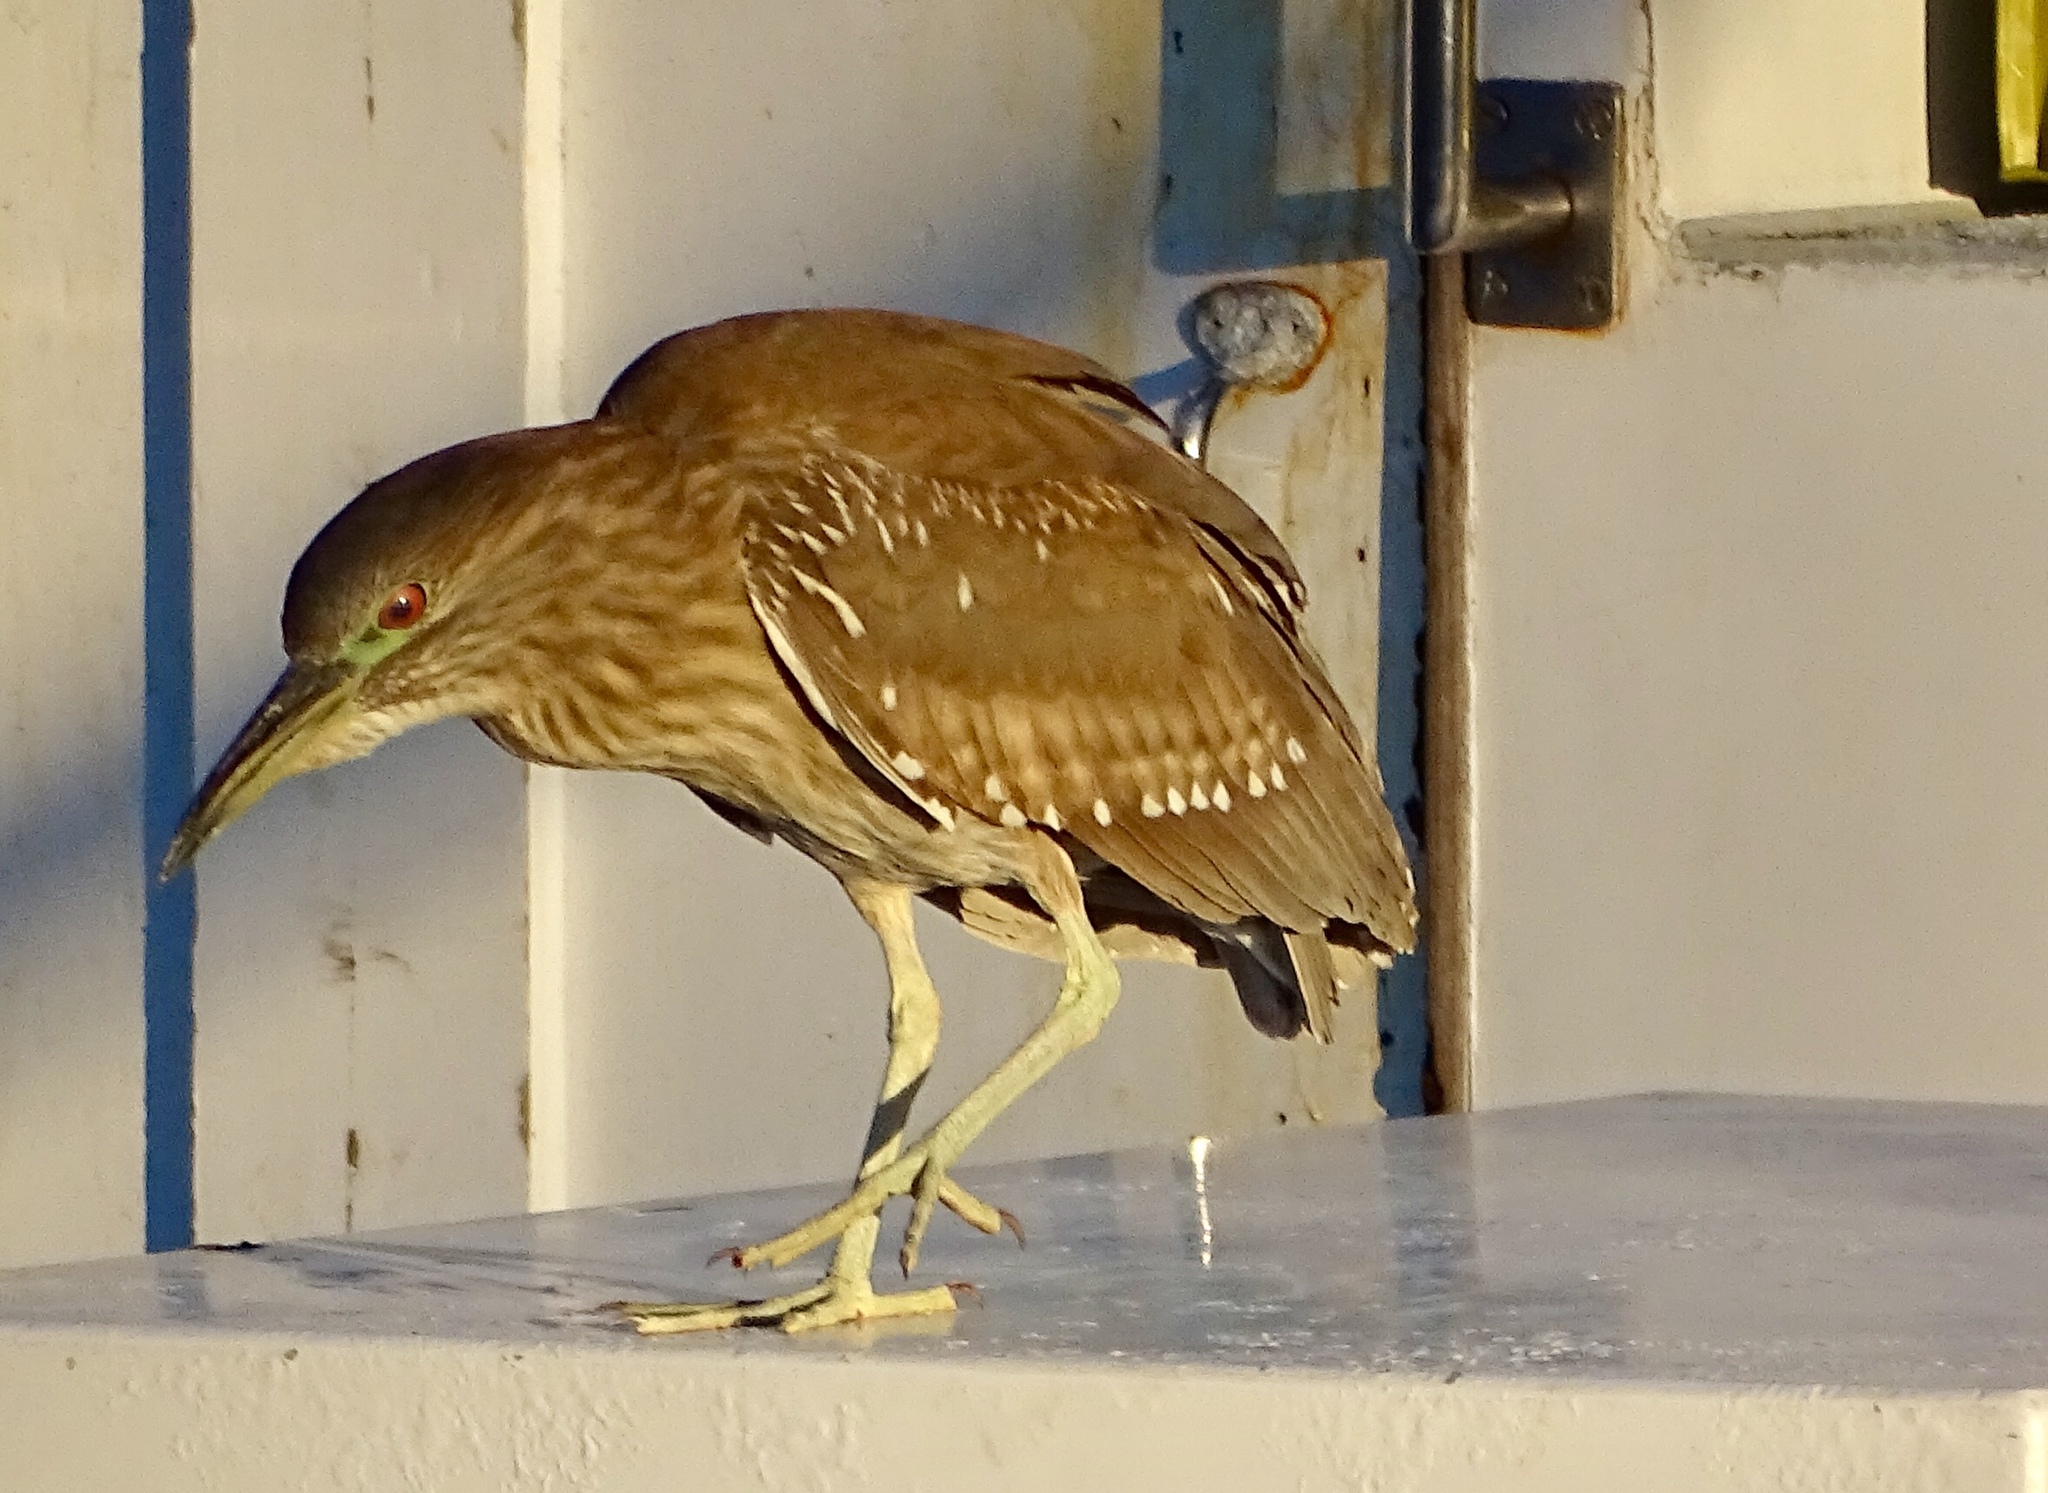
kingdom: Animalia
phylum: Chordata
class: Aves
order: Pelecaniformes
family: Ardeidae
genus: Nycticorax
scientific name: Nycticorax nycticorax
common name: Black-crowned night heron
